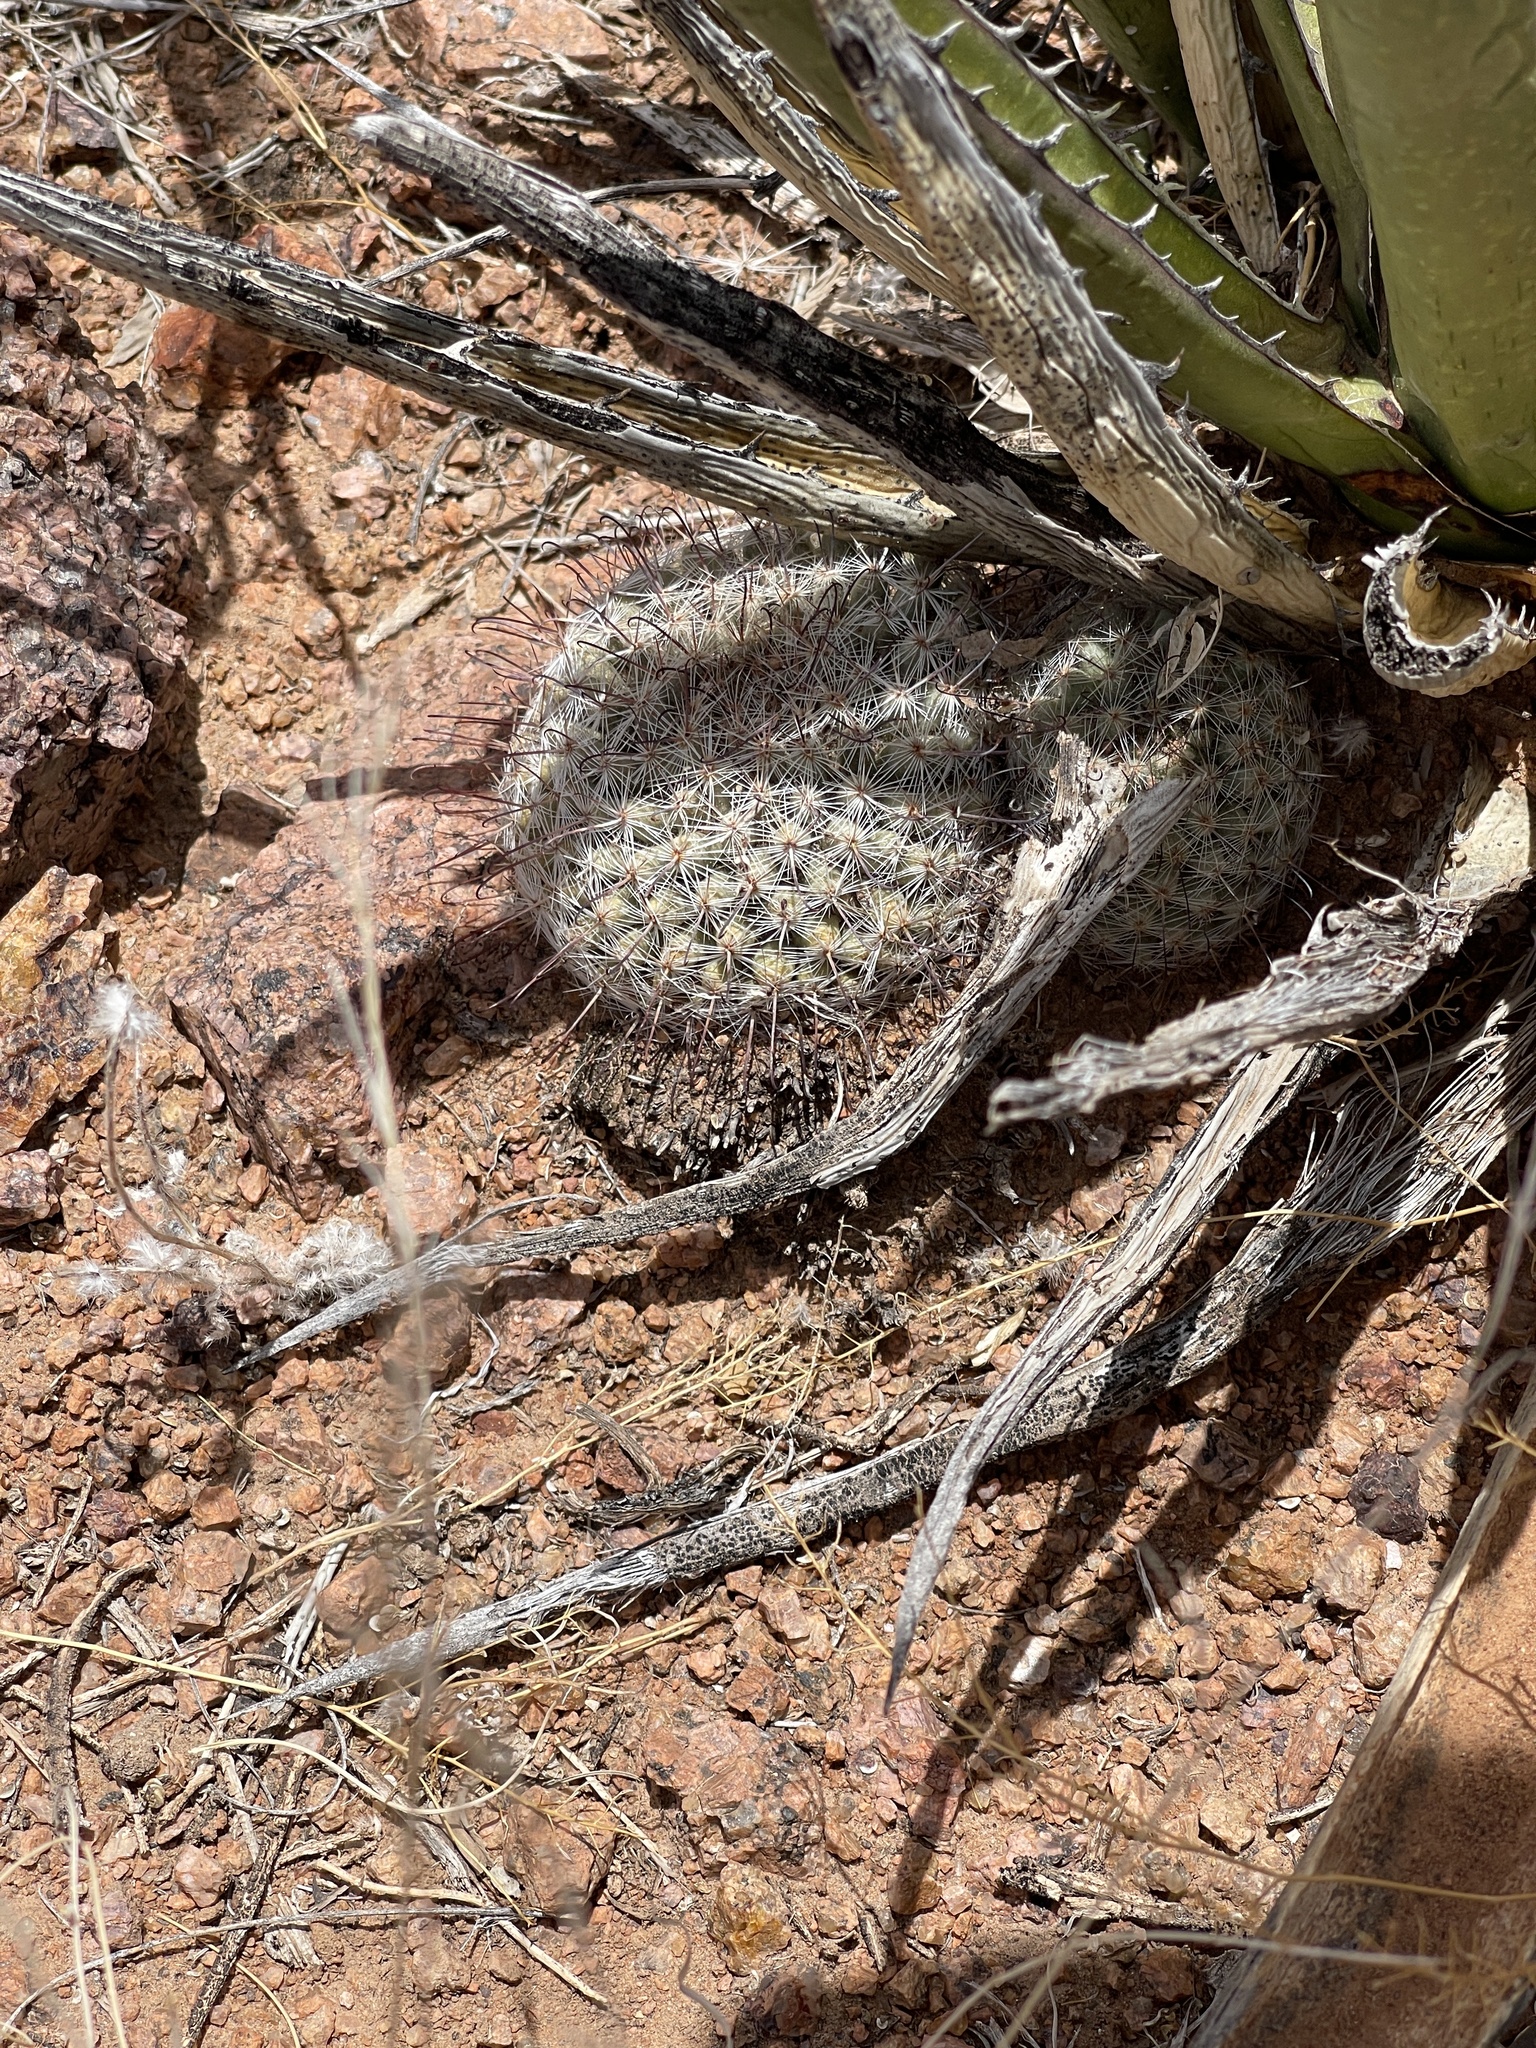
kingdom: Plantae
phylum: Tracheophyta
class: Magnoliopsida
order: Caryophyllales
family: Cactaceae
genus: Cochemiea
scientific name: Cochemiea grahamii
